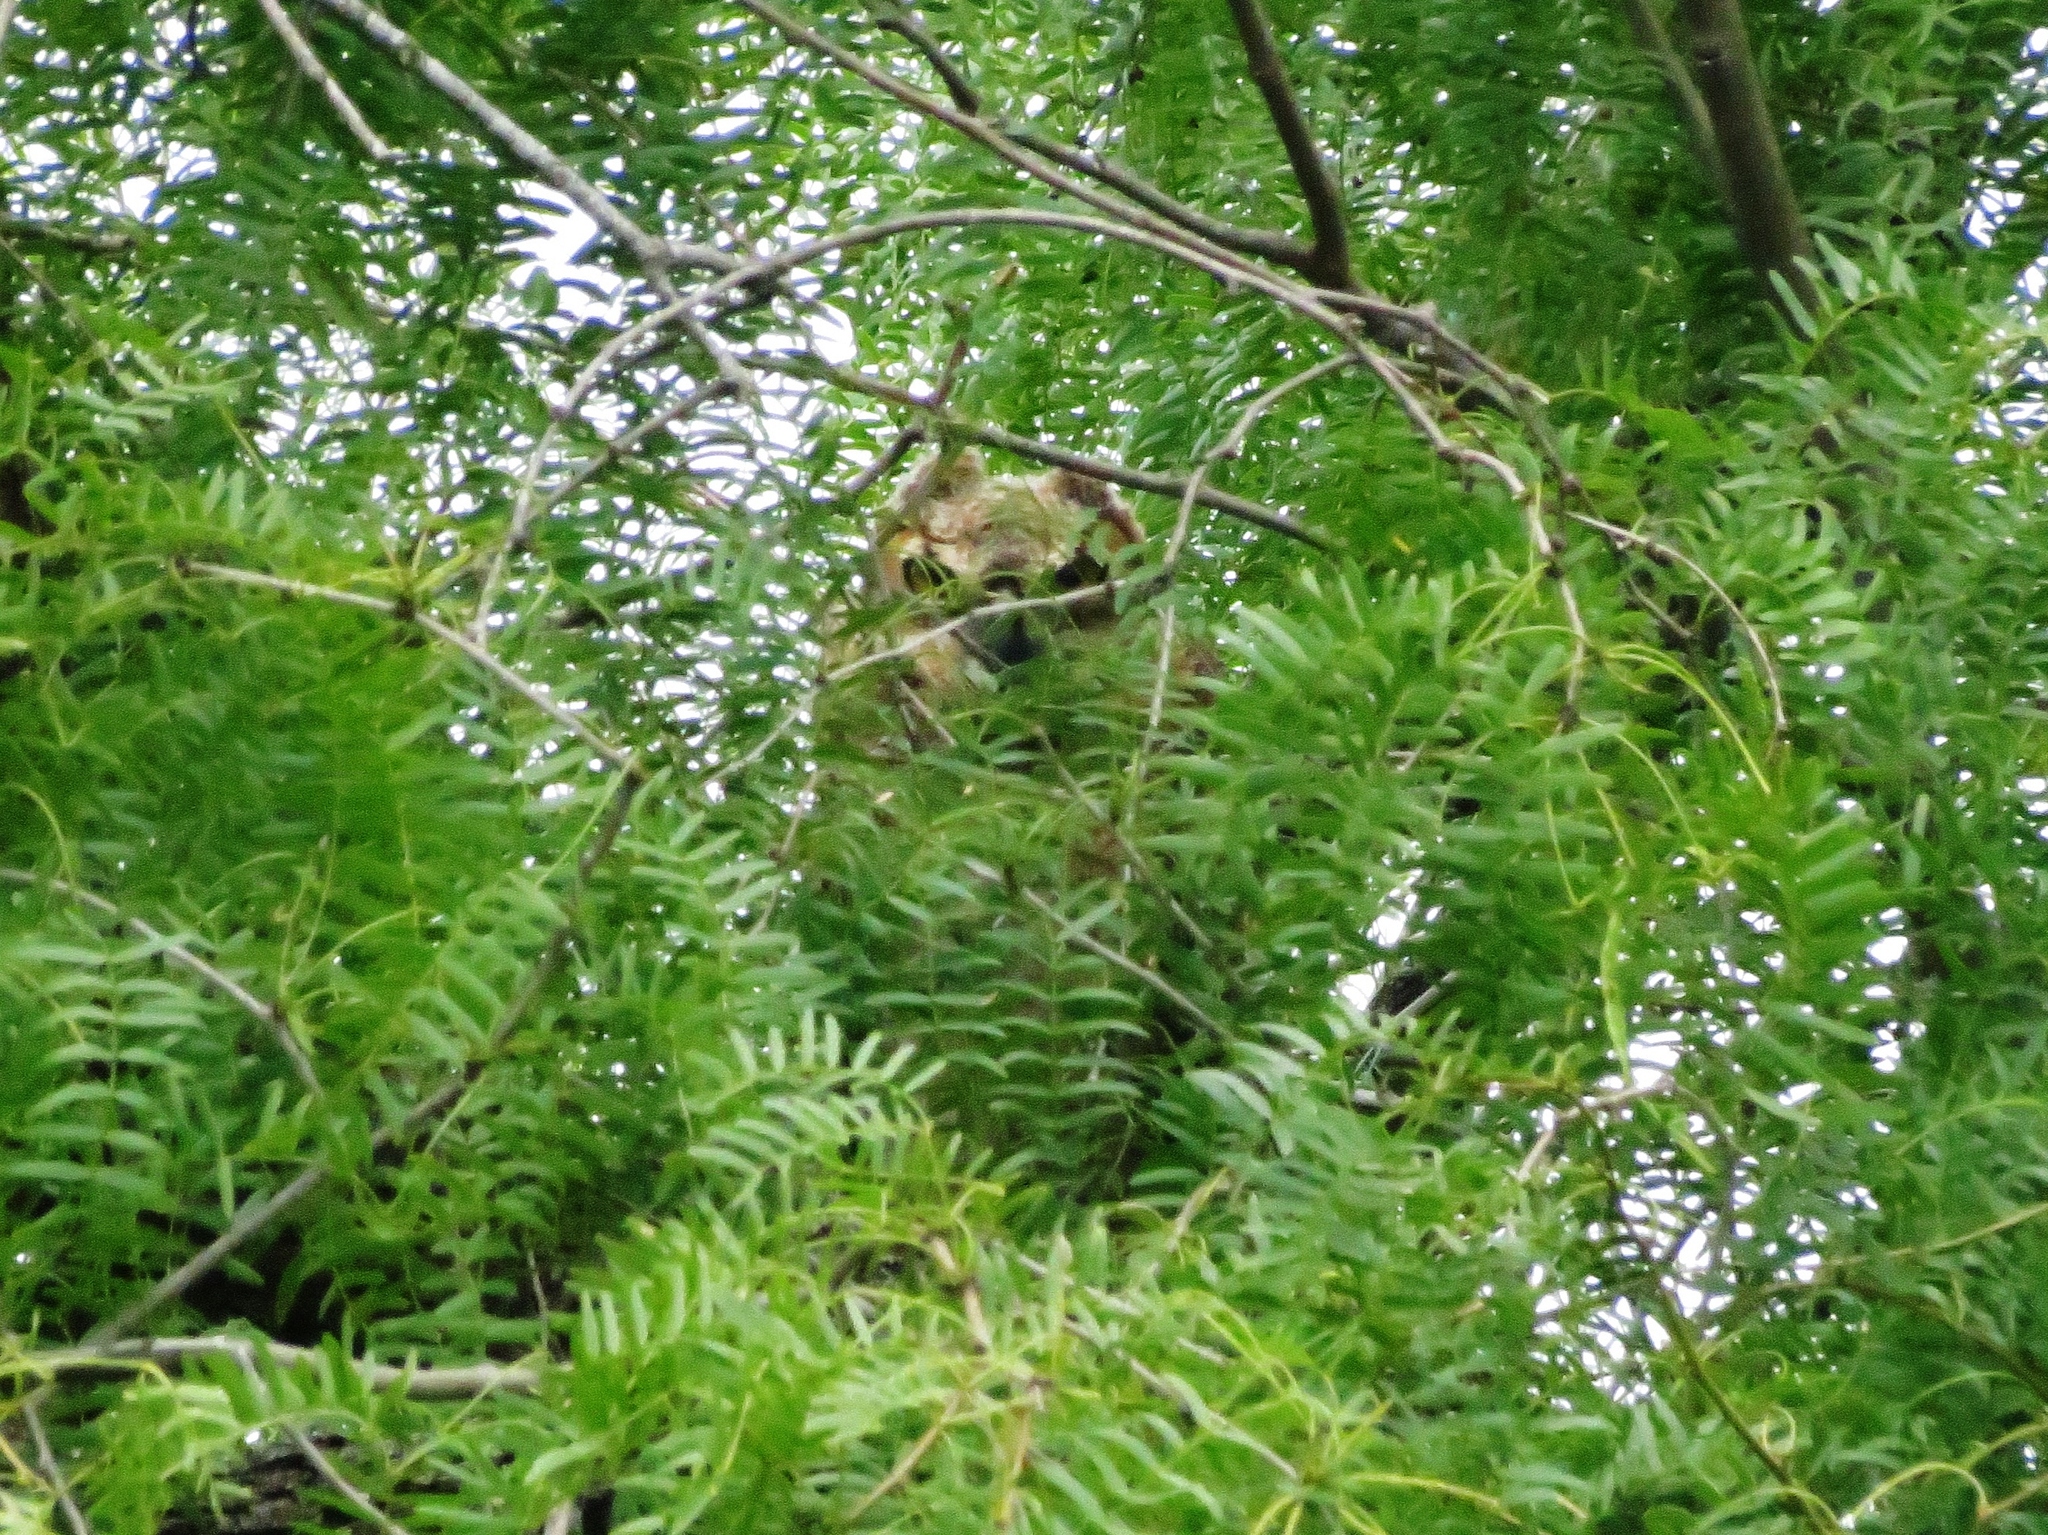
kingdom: Animalia
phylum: Chordata
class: Aves
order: Strigiformes
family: Strigidae
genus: Bubo
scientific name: Bubo virginianus
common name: Great horned owl
